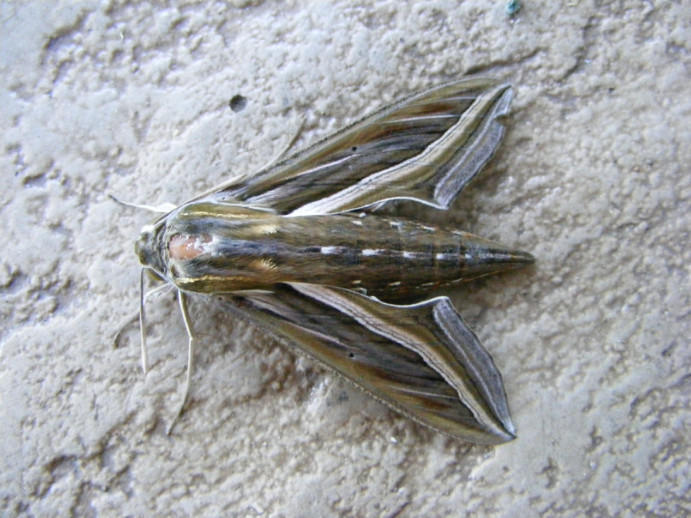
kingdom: Animalia
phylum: Arthropoda
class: Insecta
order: Lepidoptera
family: Sphingidae
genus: Hippotion
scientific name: Hippotion celerio
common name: Silver-striped hawk-moth
